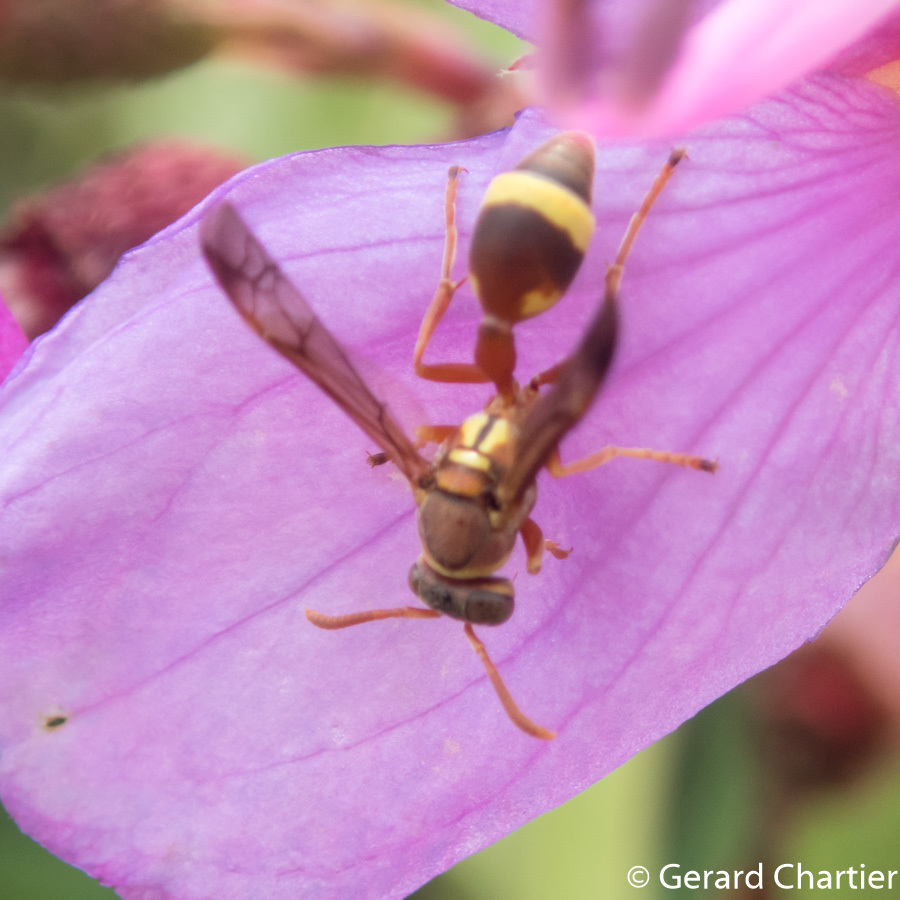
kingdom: Animalia
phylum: Arthropoda
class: Insecta
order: Hymenoptera
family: Vespidae
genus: Ropalidia
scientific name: Ropalidia fasciata
